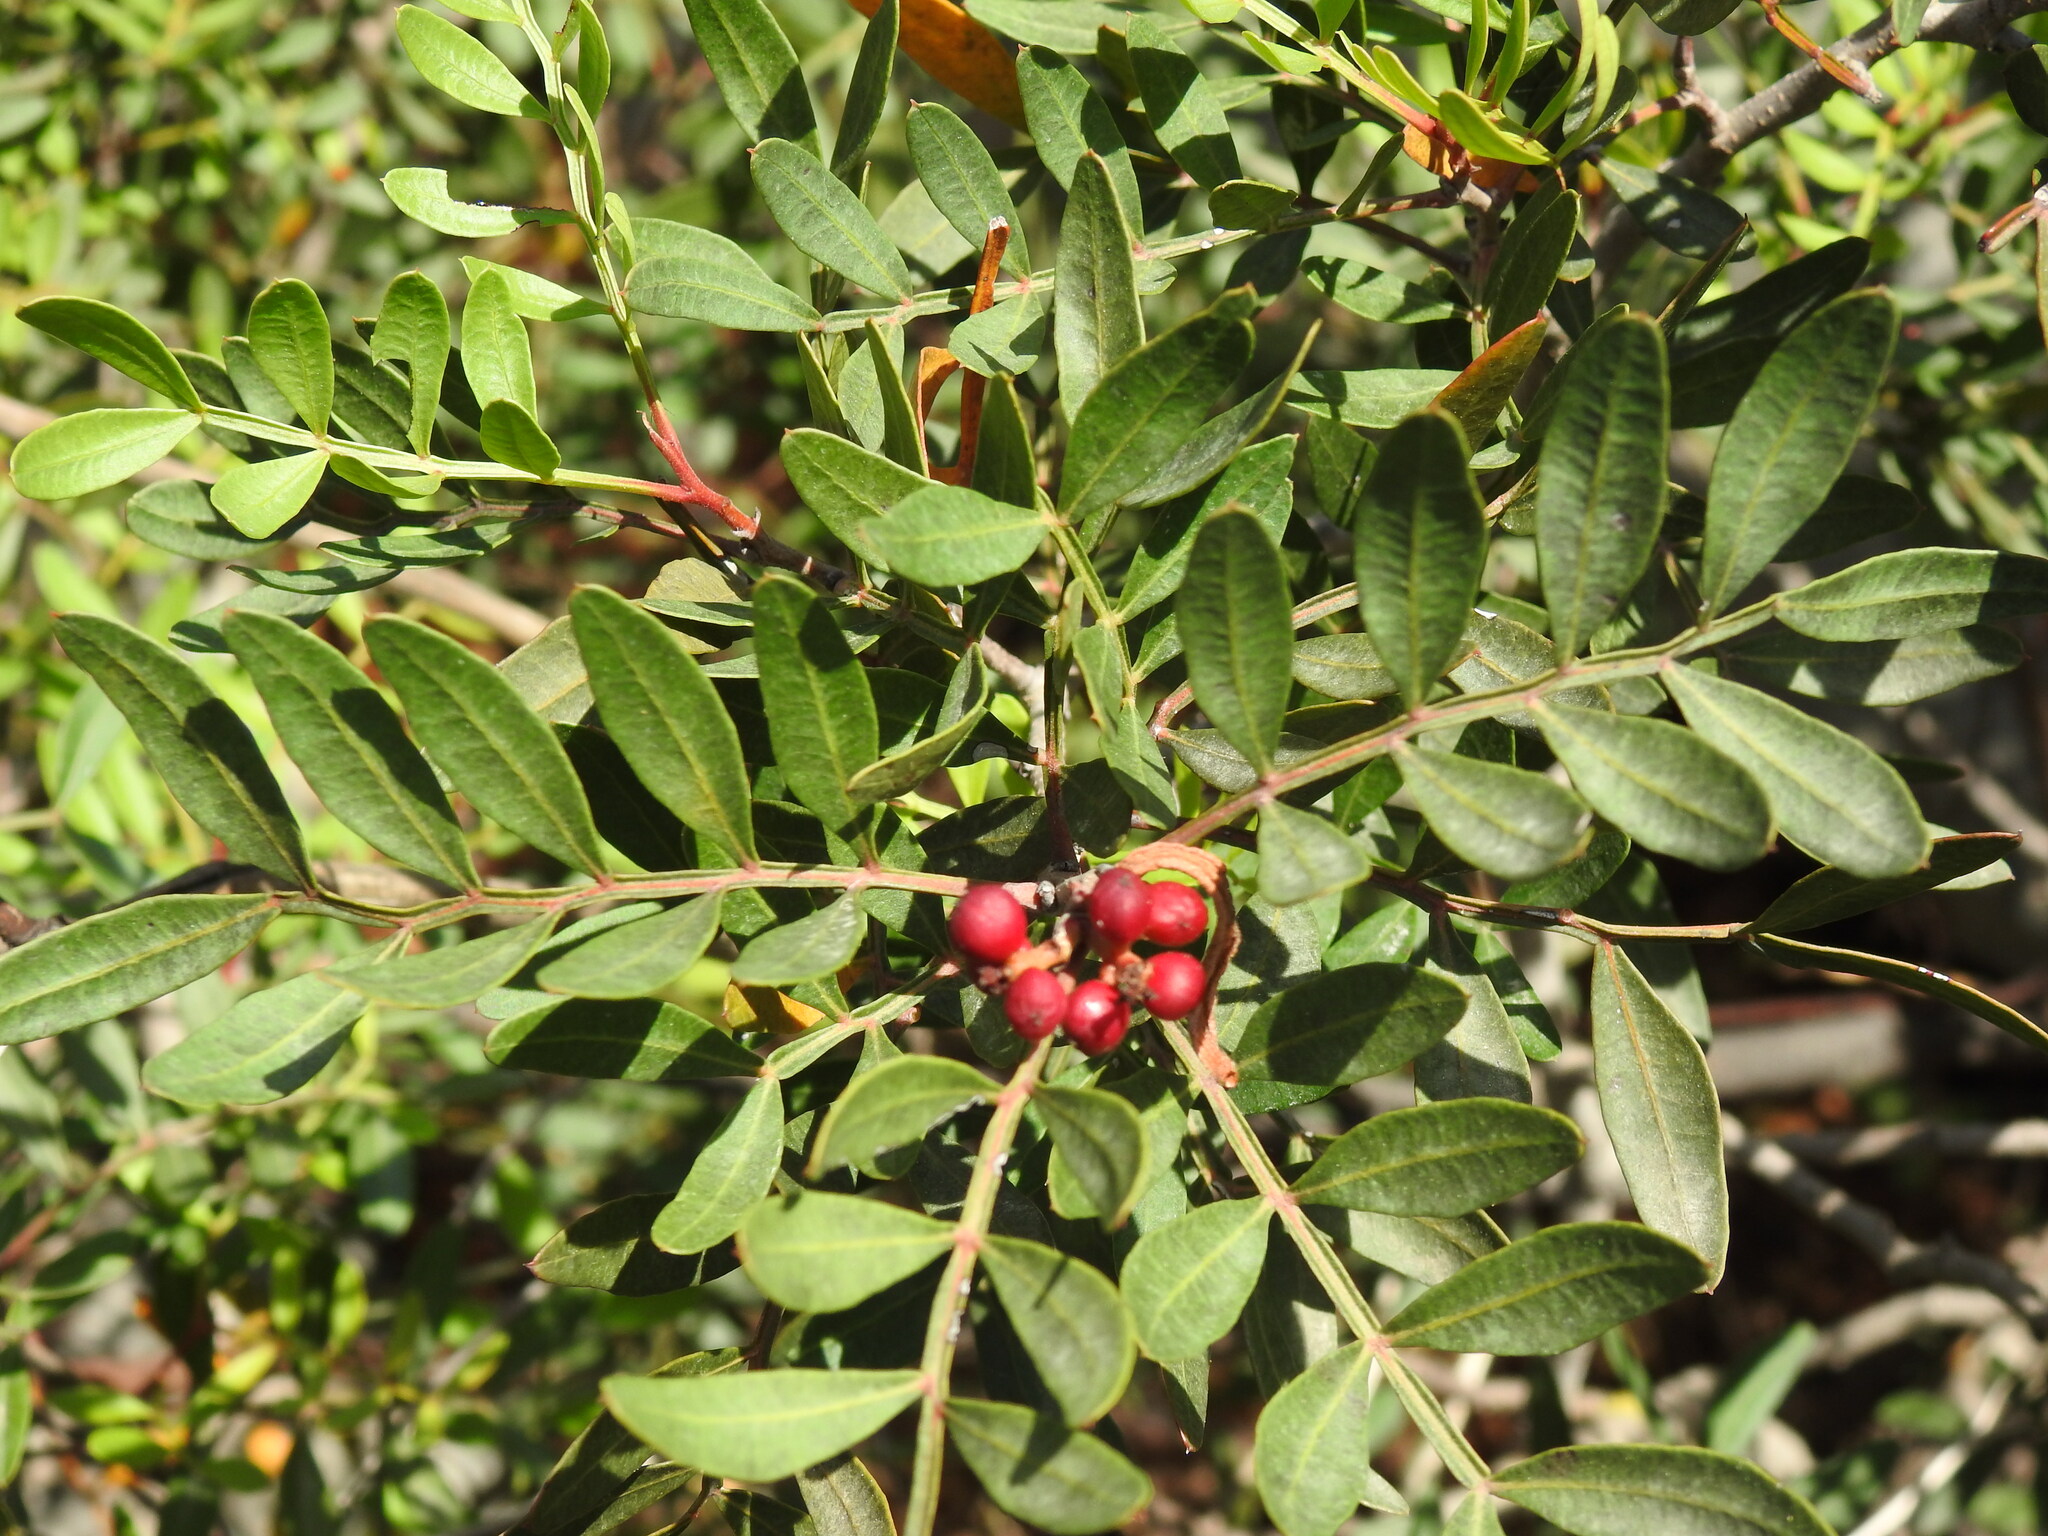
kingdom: Plantae
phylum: Tracheophyta
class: Magnoliopsida
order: Sapindales
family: Anacardiaceae
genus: Pistacia
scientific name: Pistacia lentiscus
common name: Lentisk
